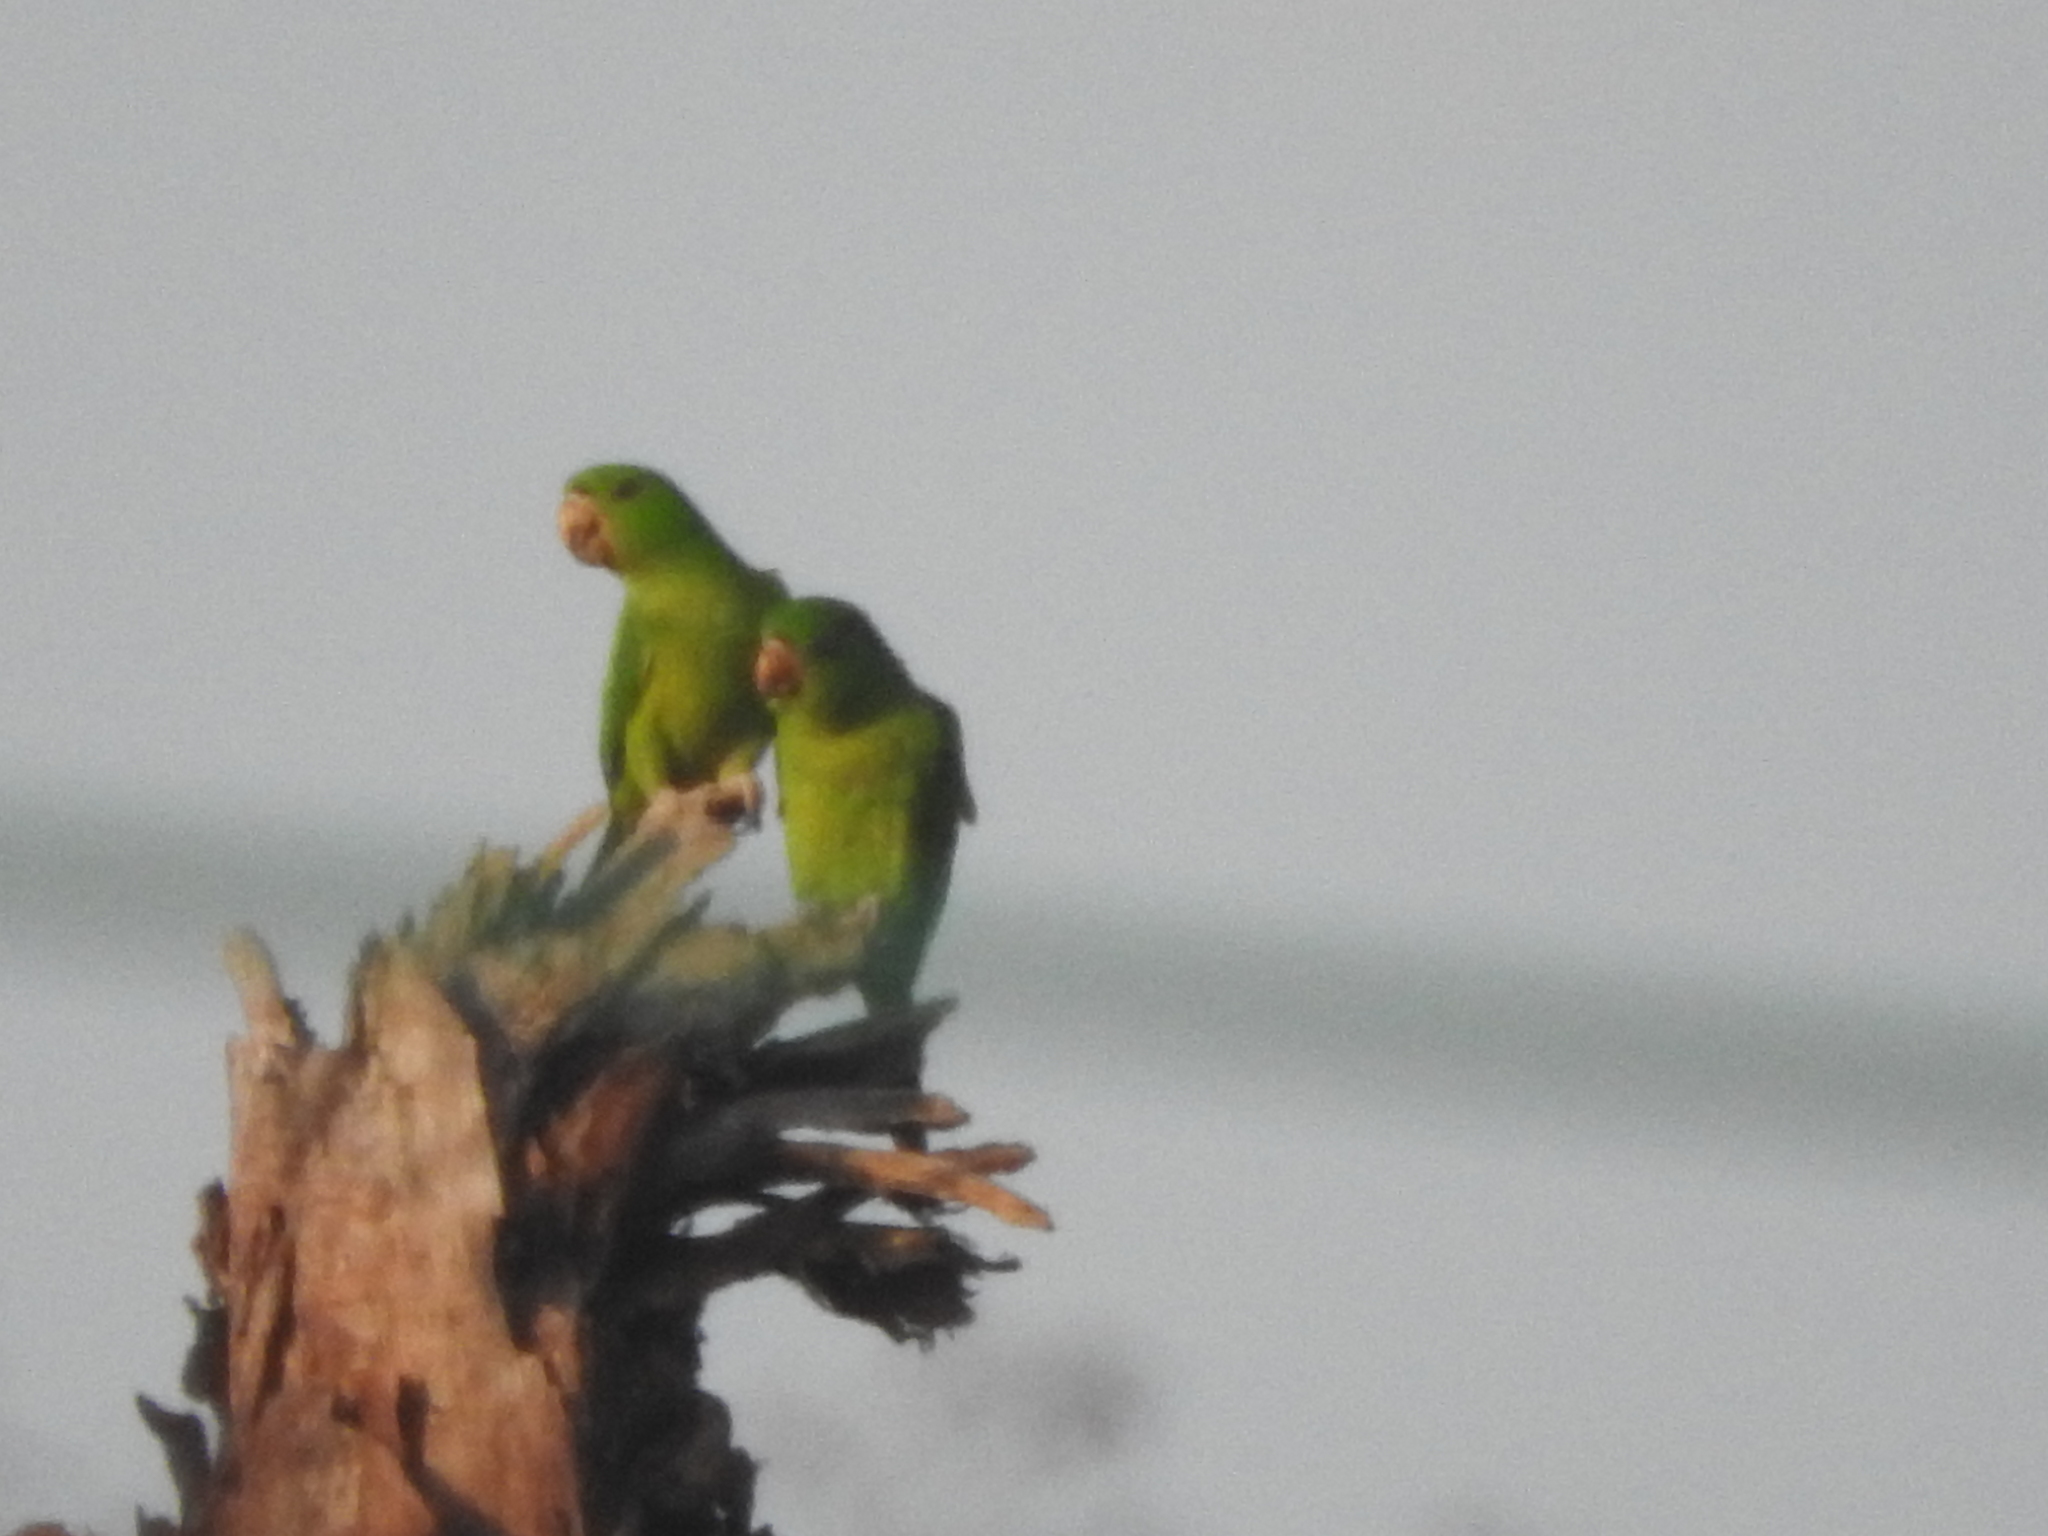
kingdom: Animalia
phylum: Chordata
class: Aves
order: Psittaciformes
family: Psittacidae
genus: Aratinga
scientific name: Aratinga holochlora
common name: Green parakeet
